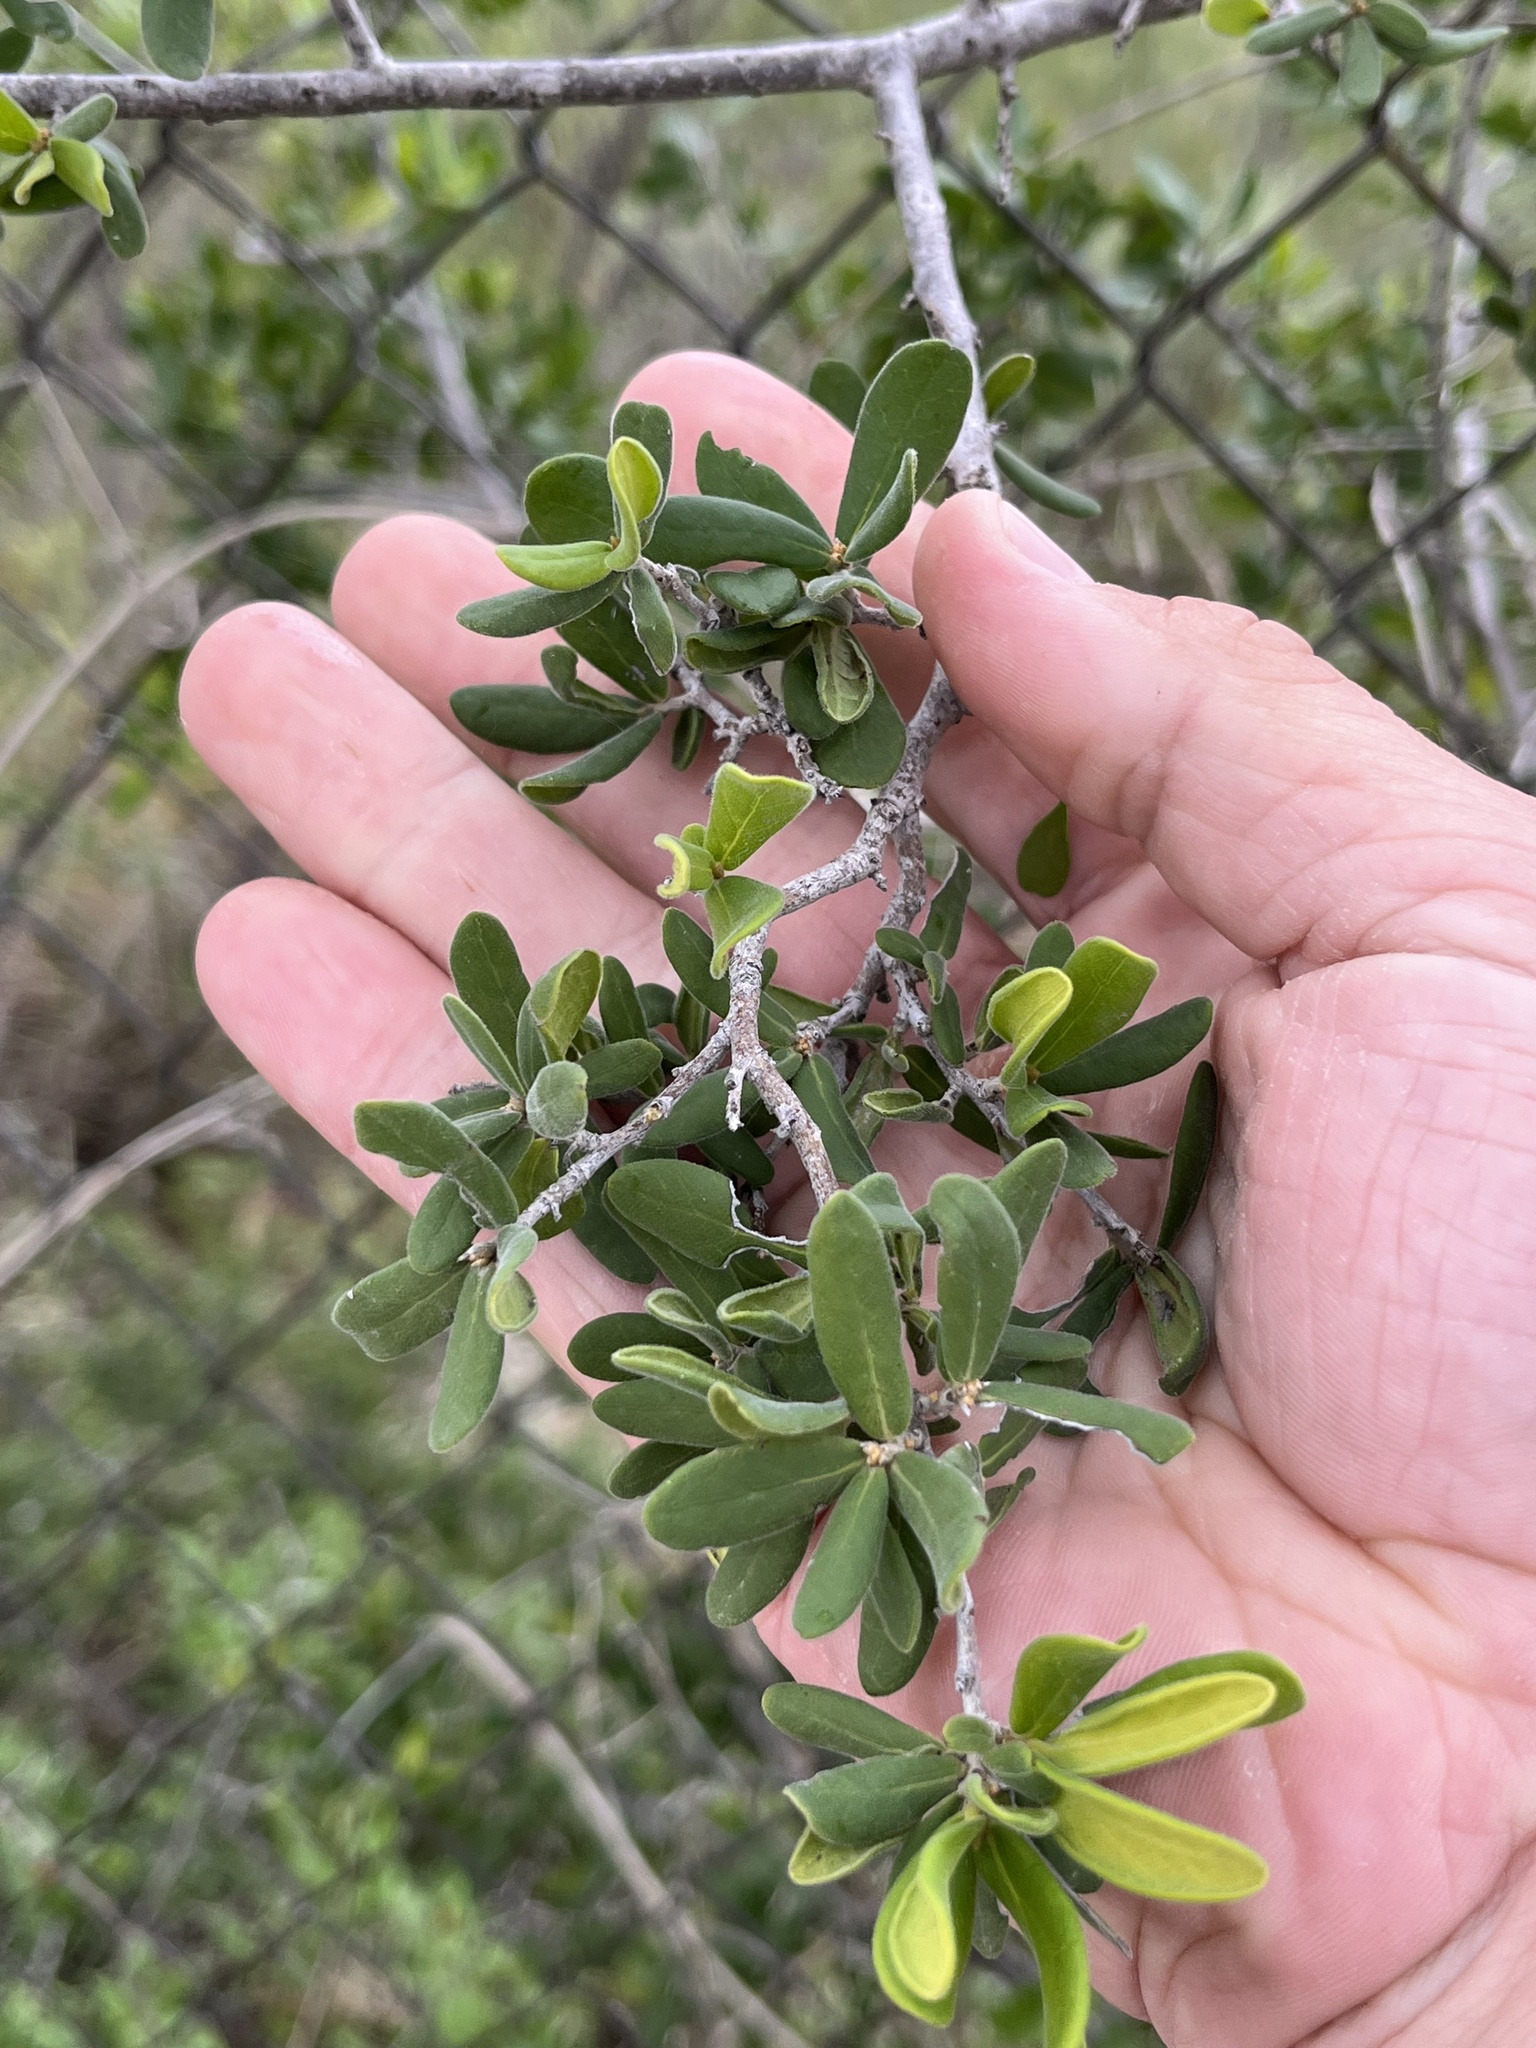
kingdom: Plantae
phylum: Tracheophyta
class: Magnoliopsida
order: Ericales
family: Ebenaceae
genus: Diospyros
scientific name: Diospyros texana
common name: Texas persimmon
